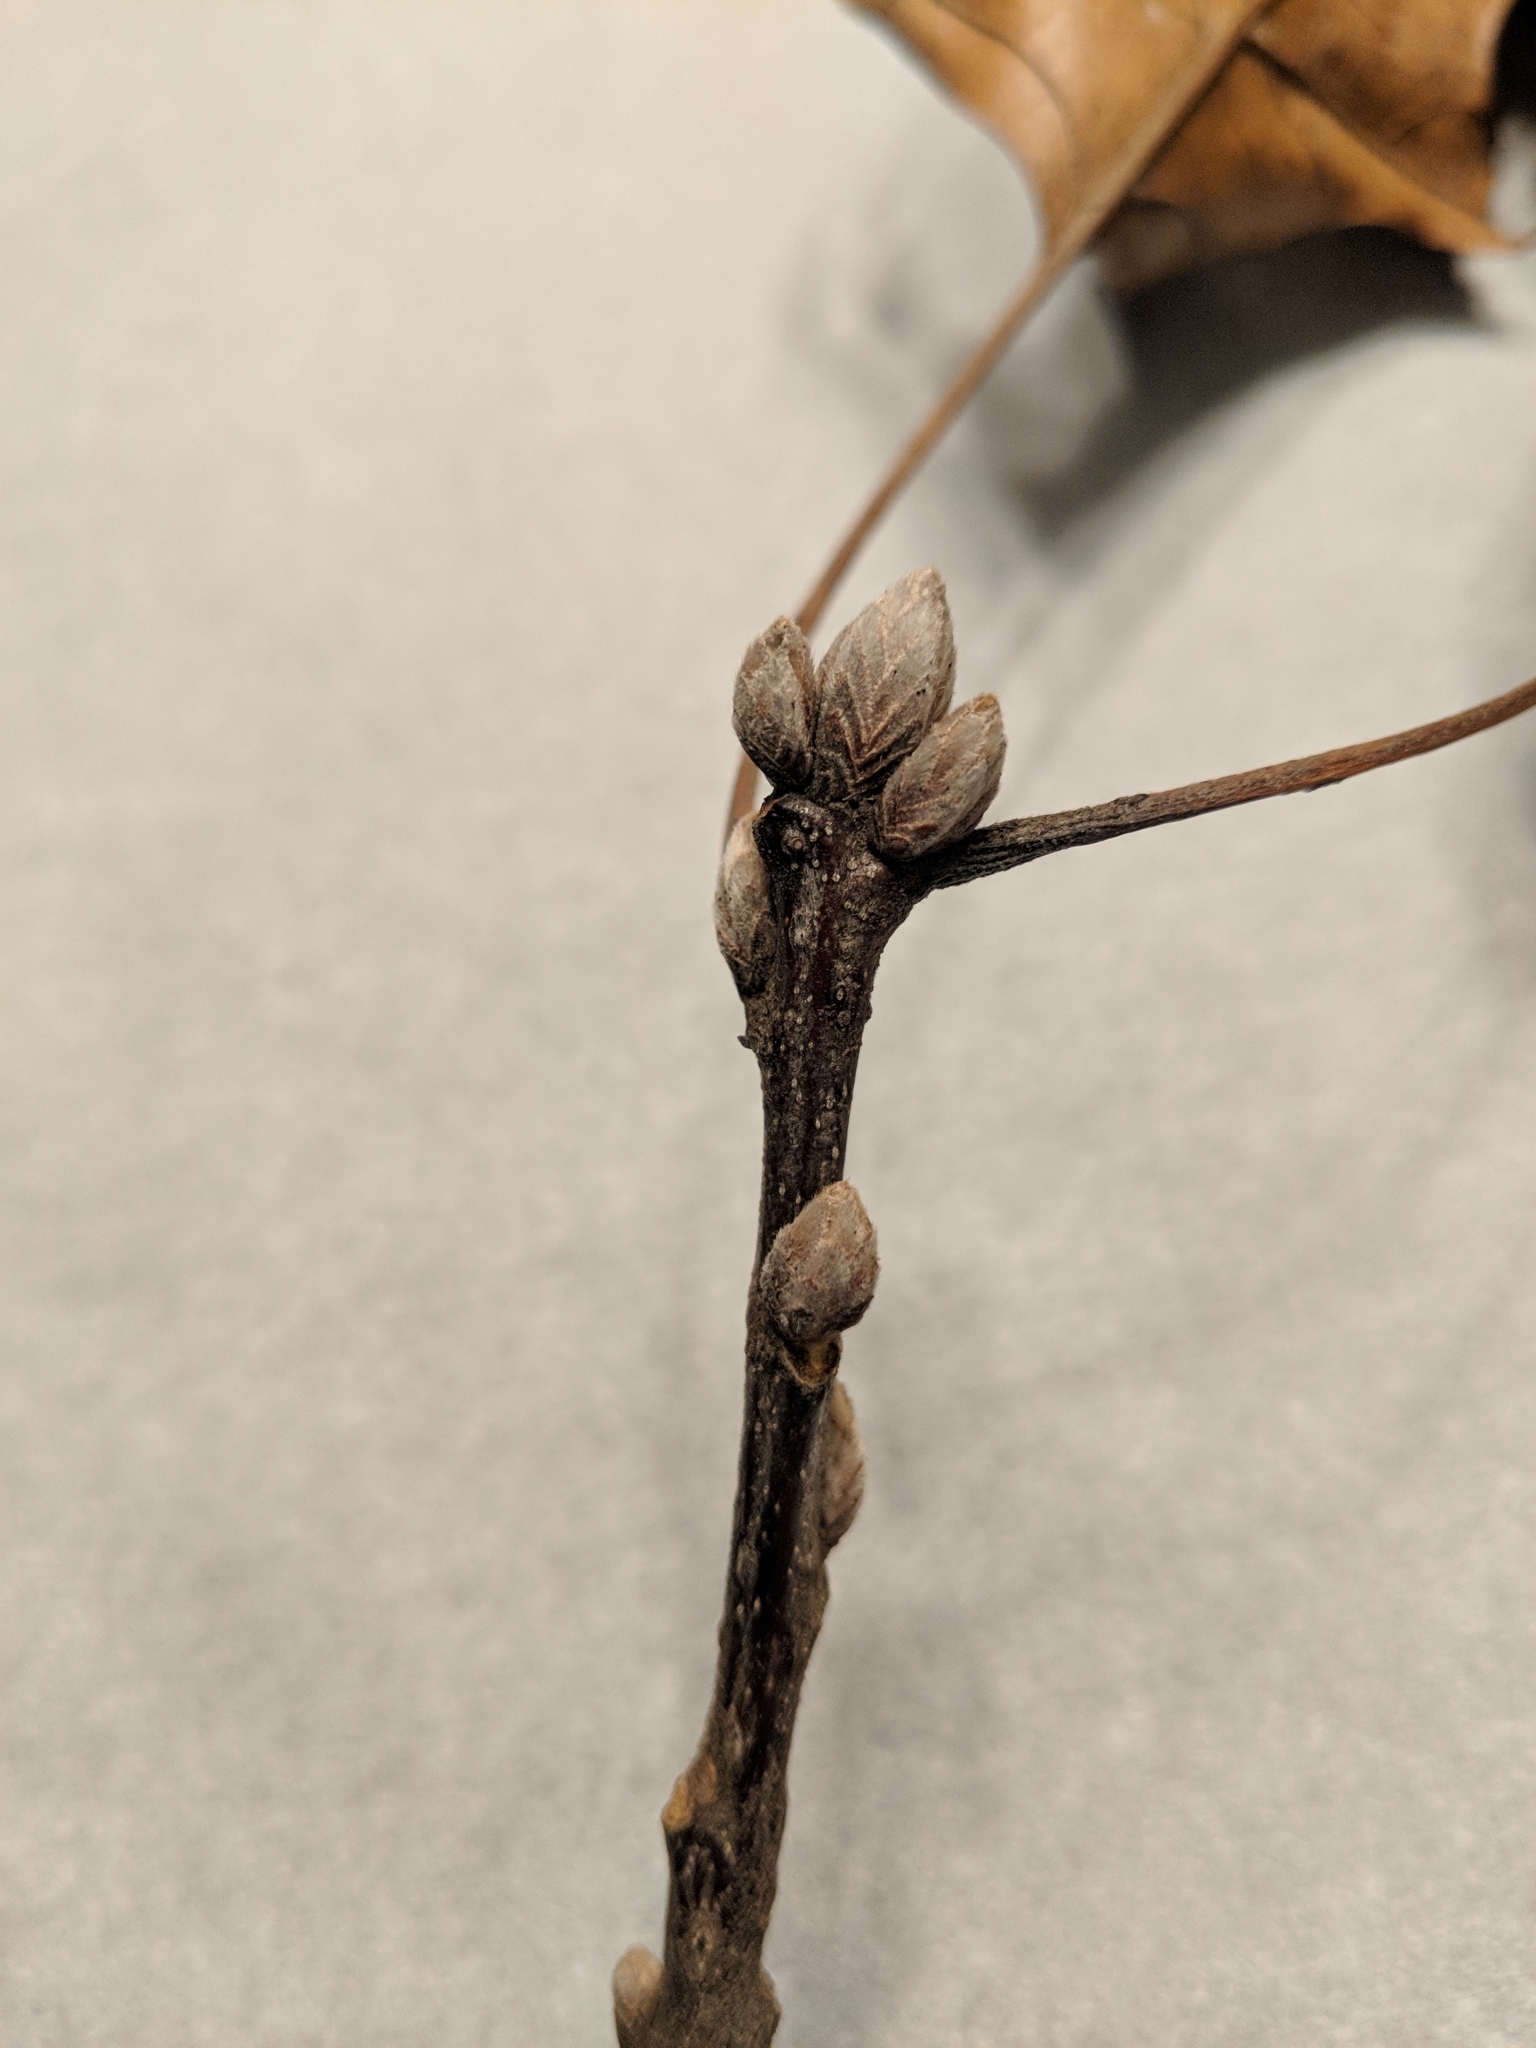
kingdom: Plantae
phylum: Tracheophyta
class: Magnoliopsida
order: Fagales
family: Fagaceae
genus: Quercus
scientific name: Quercus velutina
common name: Black oak
